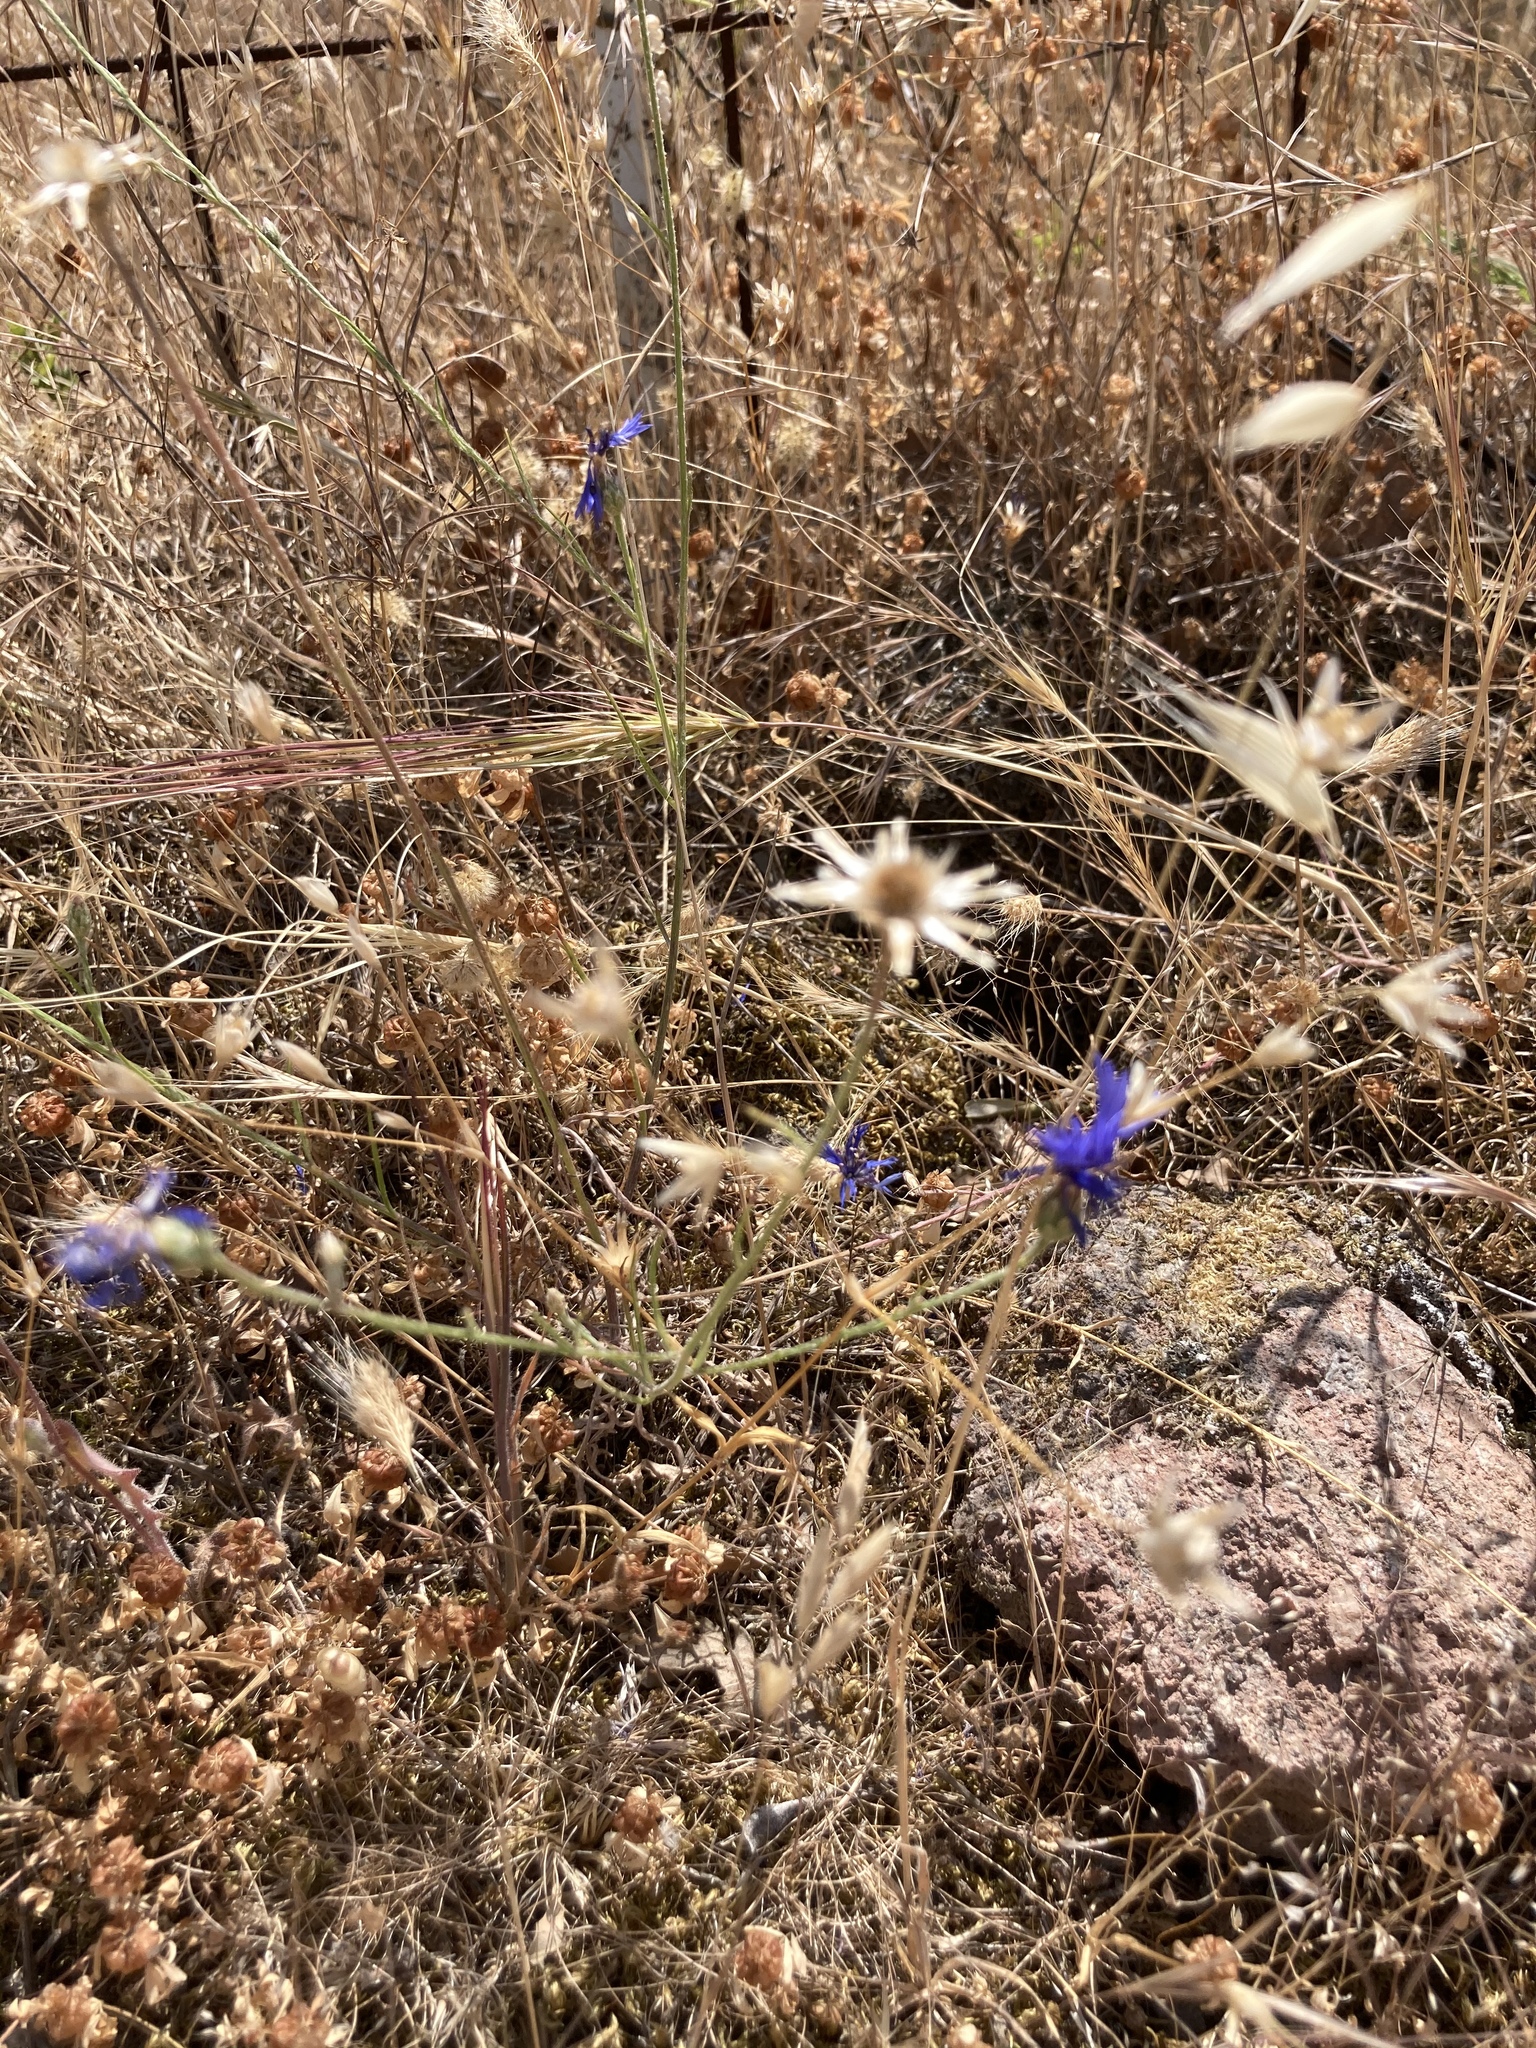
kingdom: Plantae
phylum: Tracheophyta
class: Magnoliopsida
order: Asterales
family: Asteraceae
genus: Centaurea
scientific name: Centaurea cyanus
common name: Cornflower
